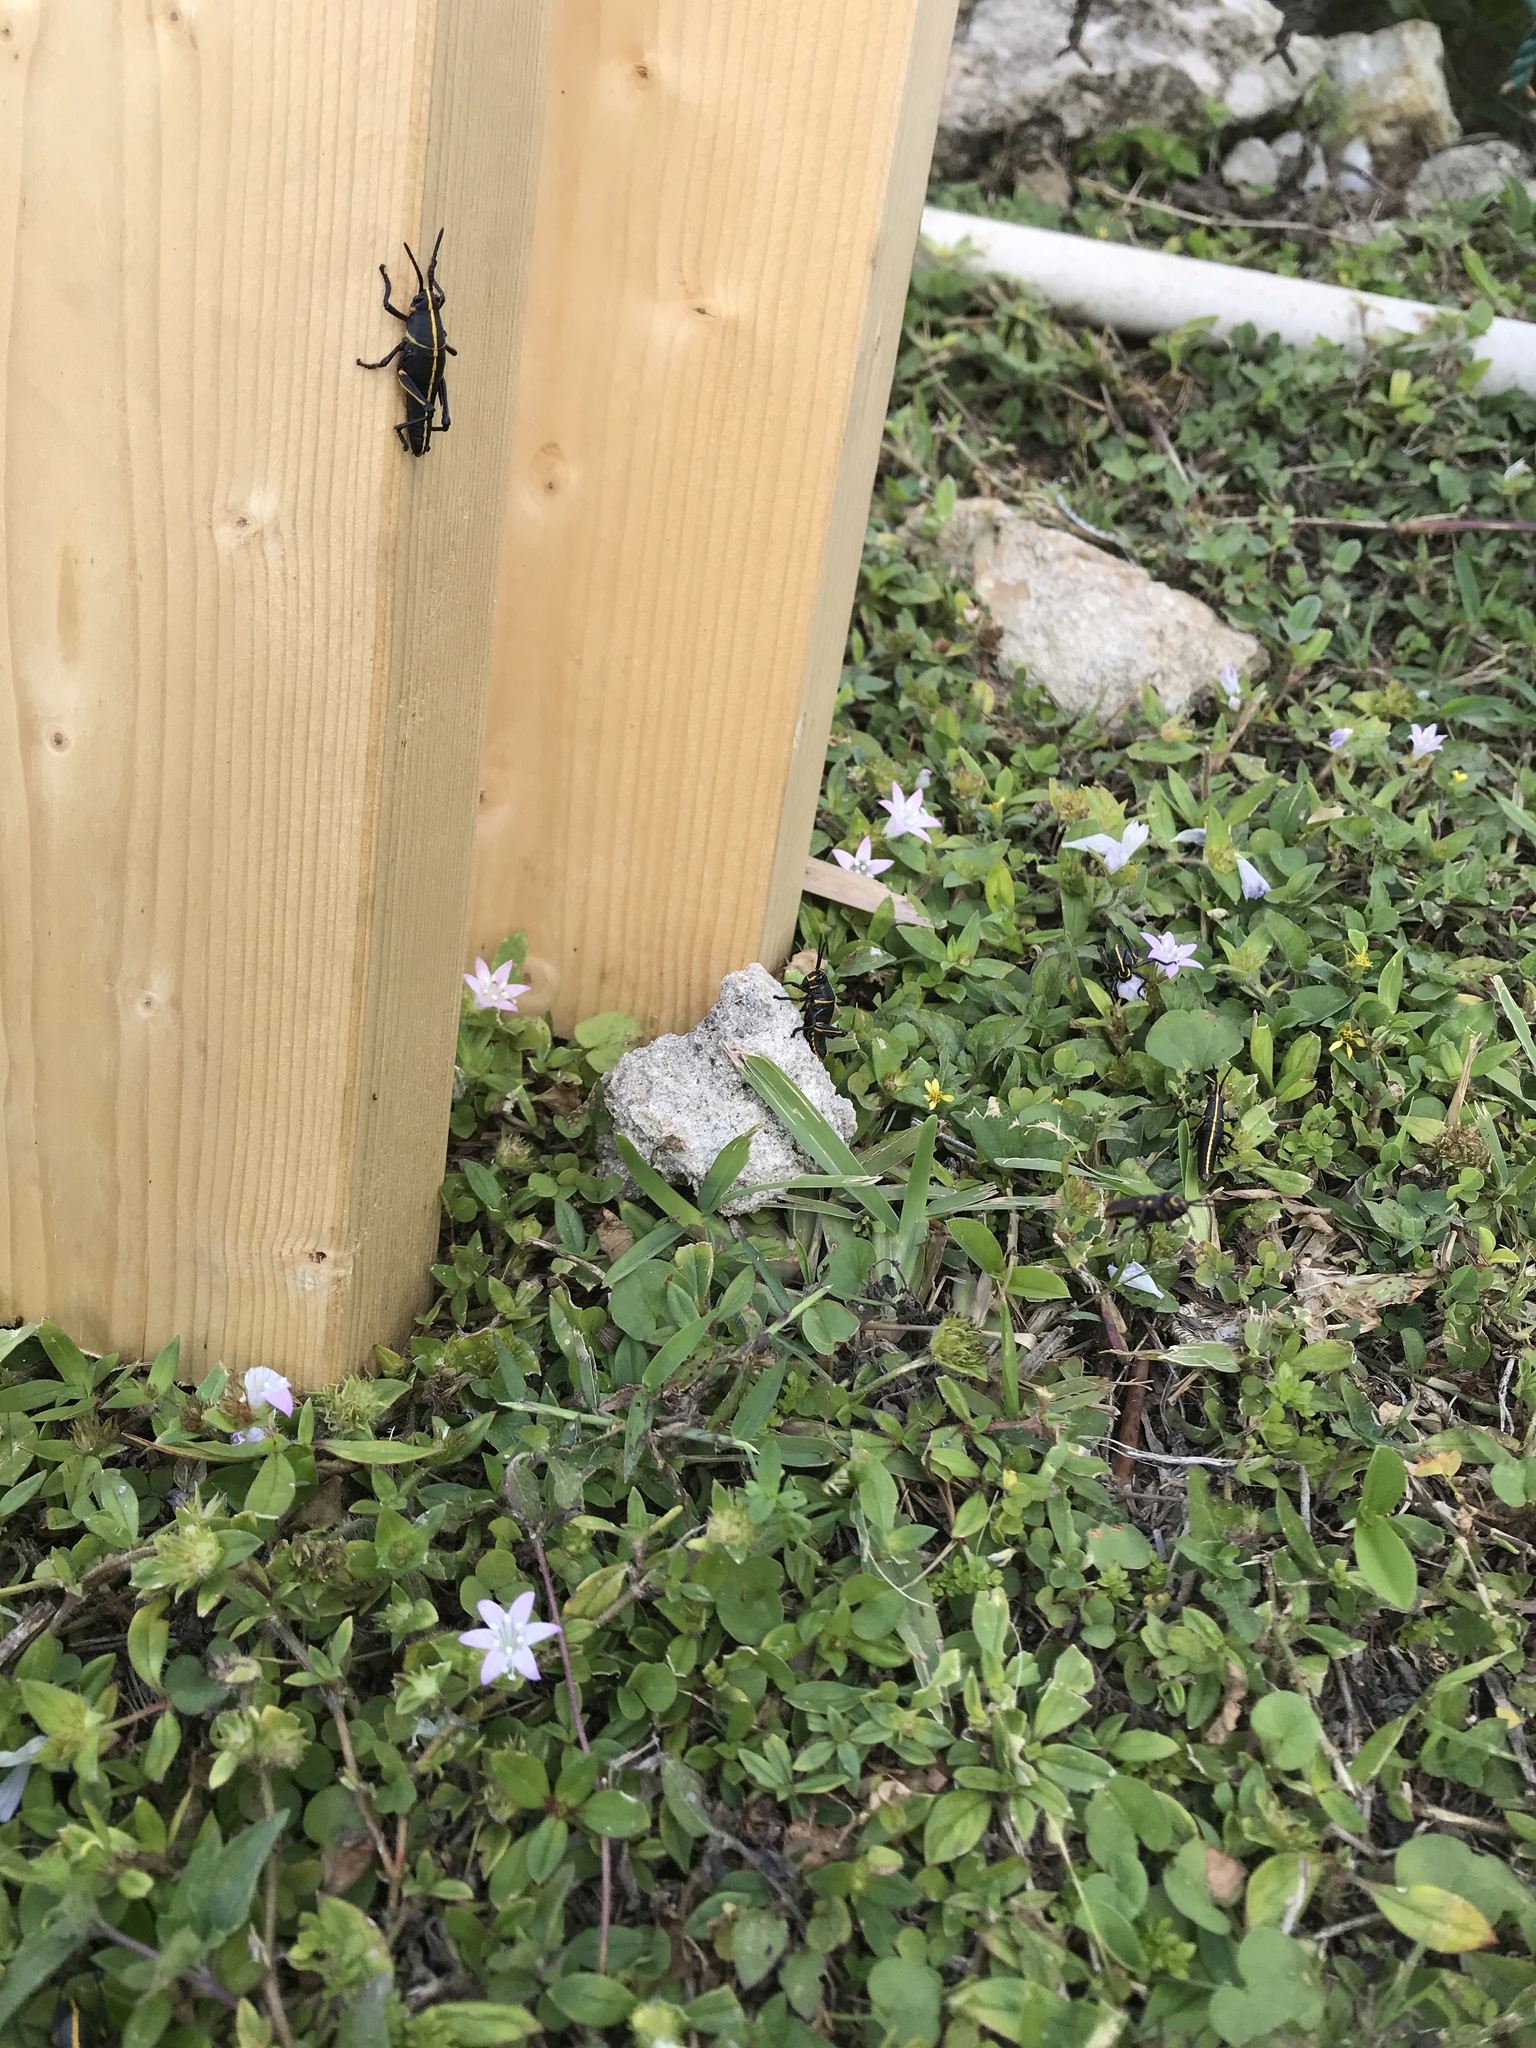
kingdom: Animalia
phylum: Arthropoda
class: Insecta
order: Orthoptera
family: Romaleidae
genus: Romalea
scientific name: Romalea microptera
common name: Eastern lubber grasshopper
